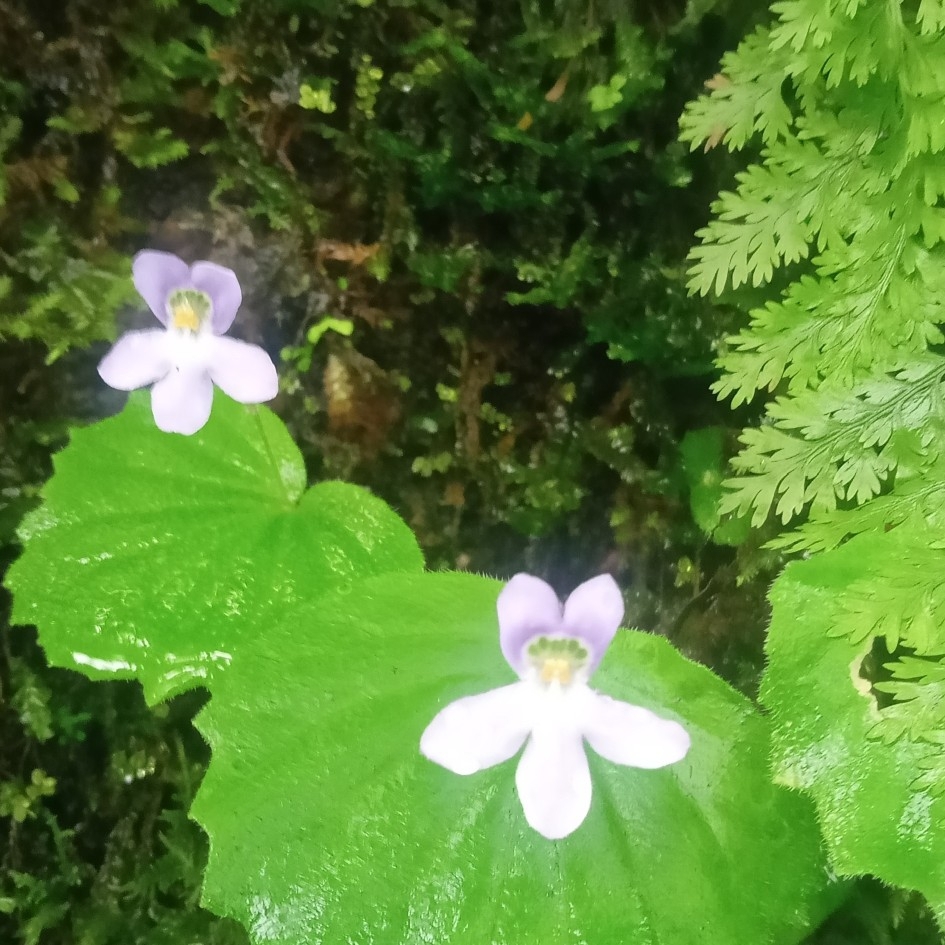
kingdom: Plantae
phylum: Tracheophyta
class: Magnoliopsida
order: Lamiales
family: Gesneriaceae
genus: Platystemma
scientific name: Platystemma violoides
